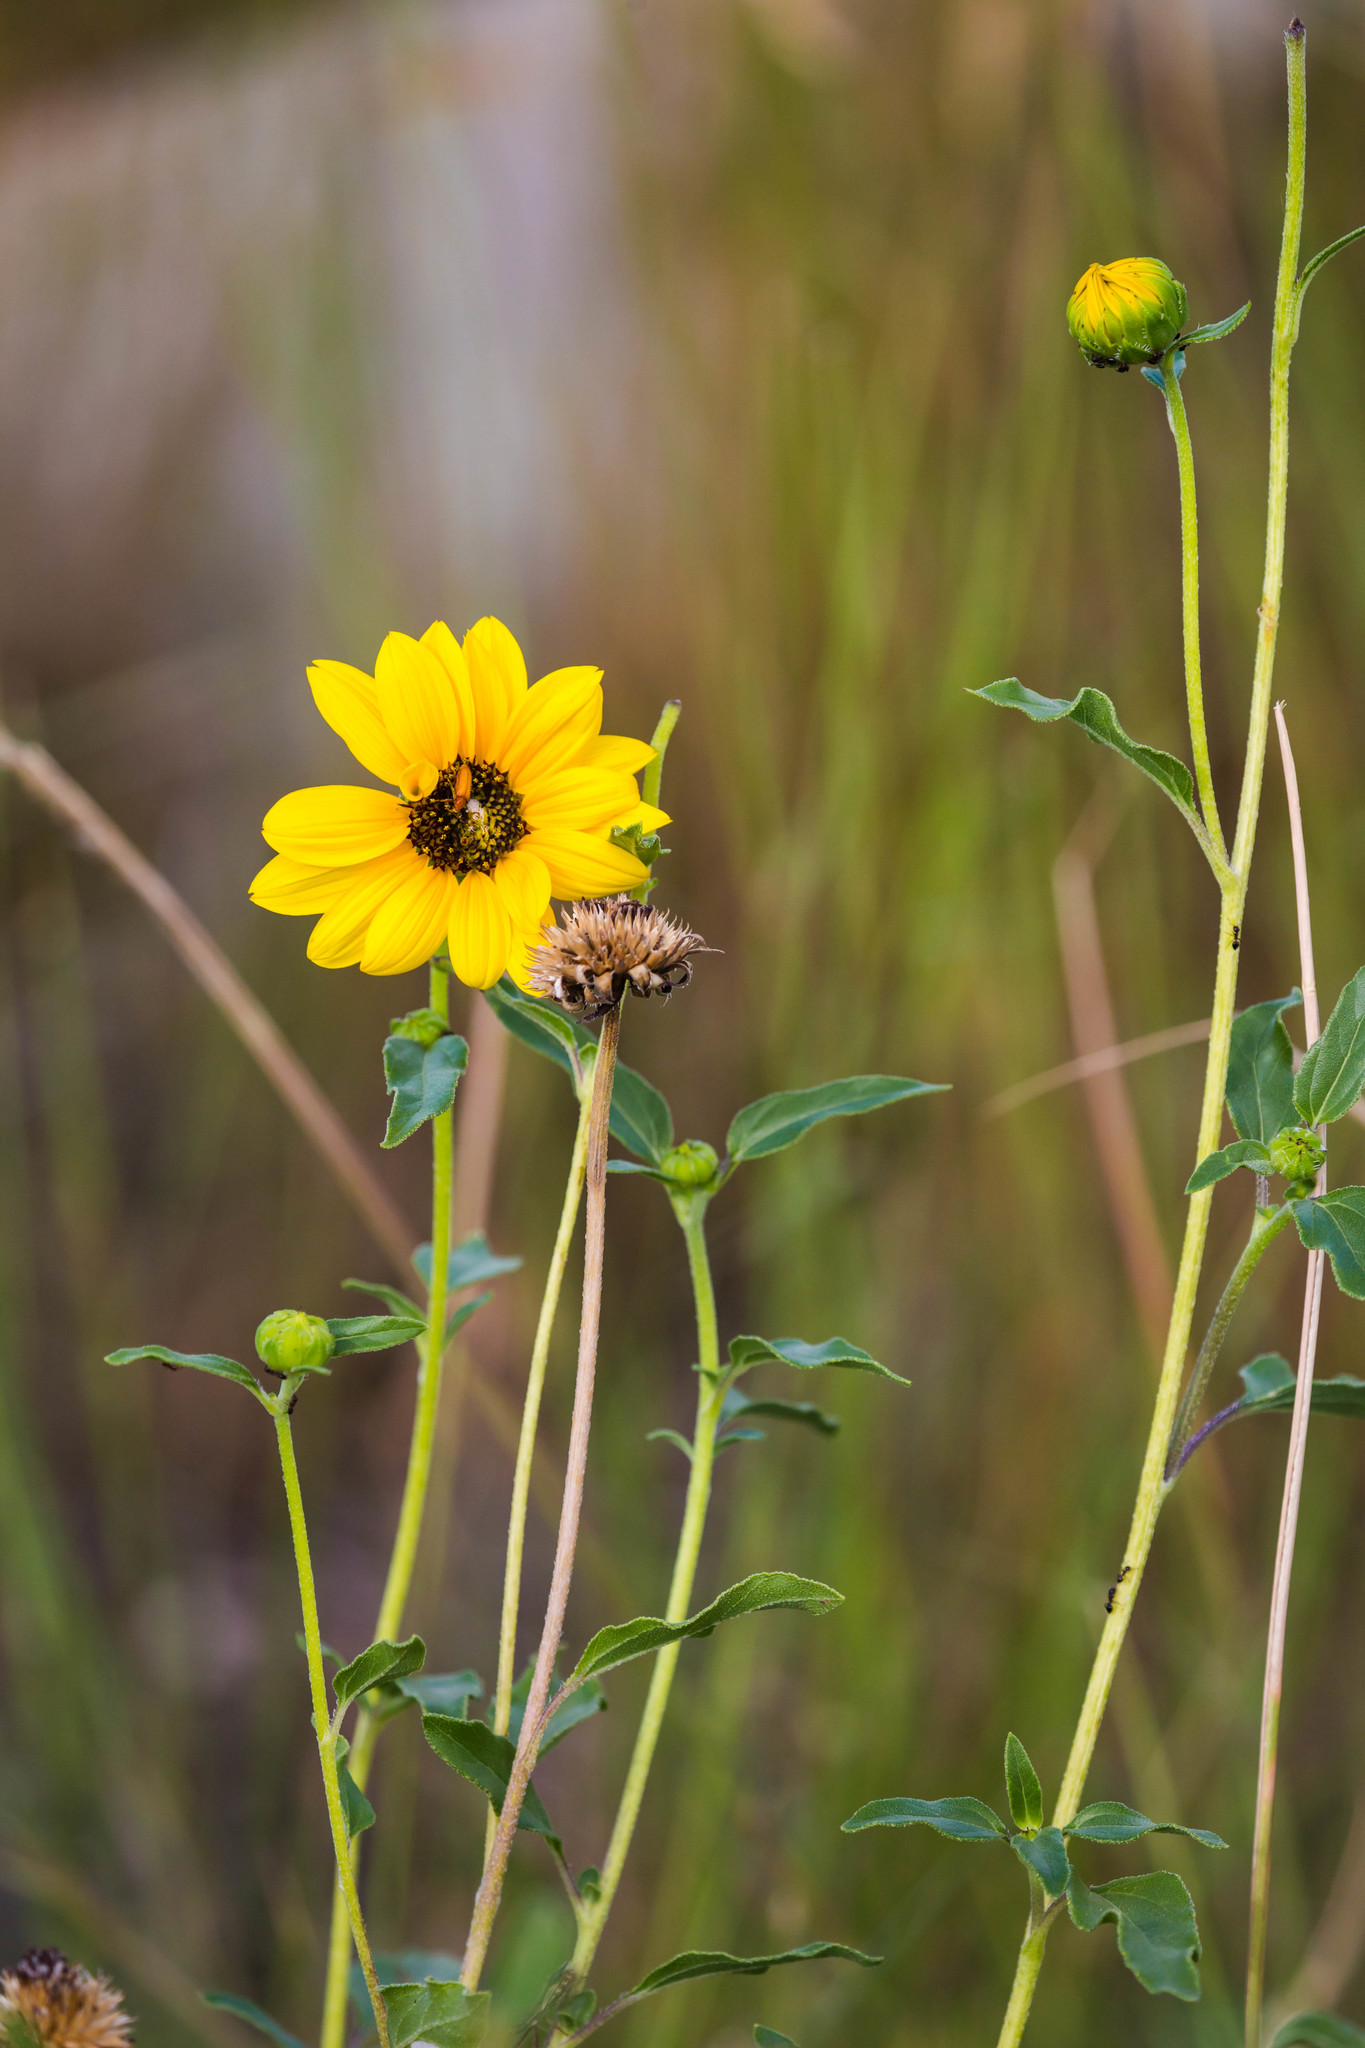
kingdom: Plantae
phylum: Tracheophyta
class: Magnoliopsida
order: Asterales
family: Asteraceae
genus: Helianthus
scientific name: Helianthus petiolaris
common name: Lesser sunflower
